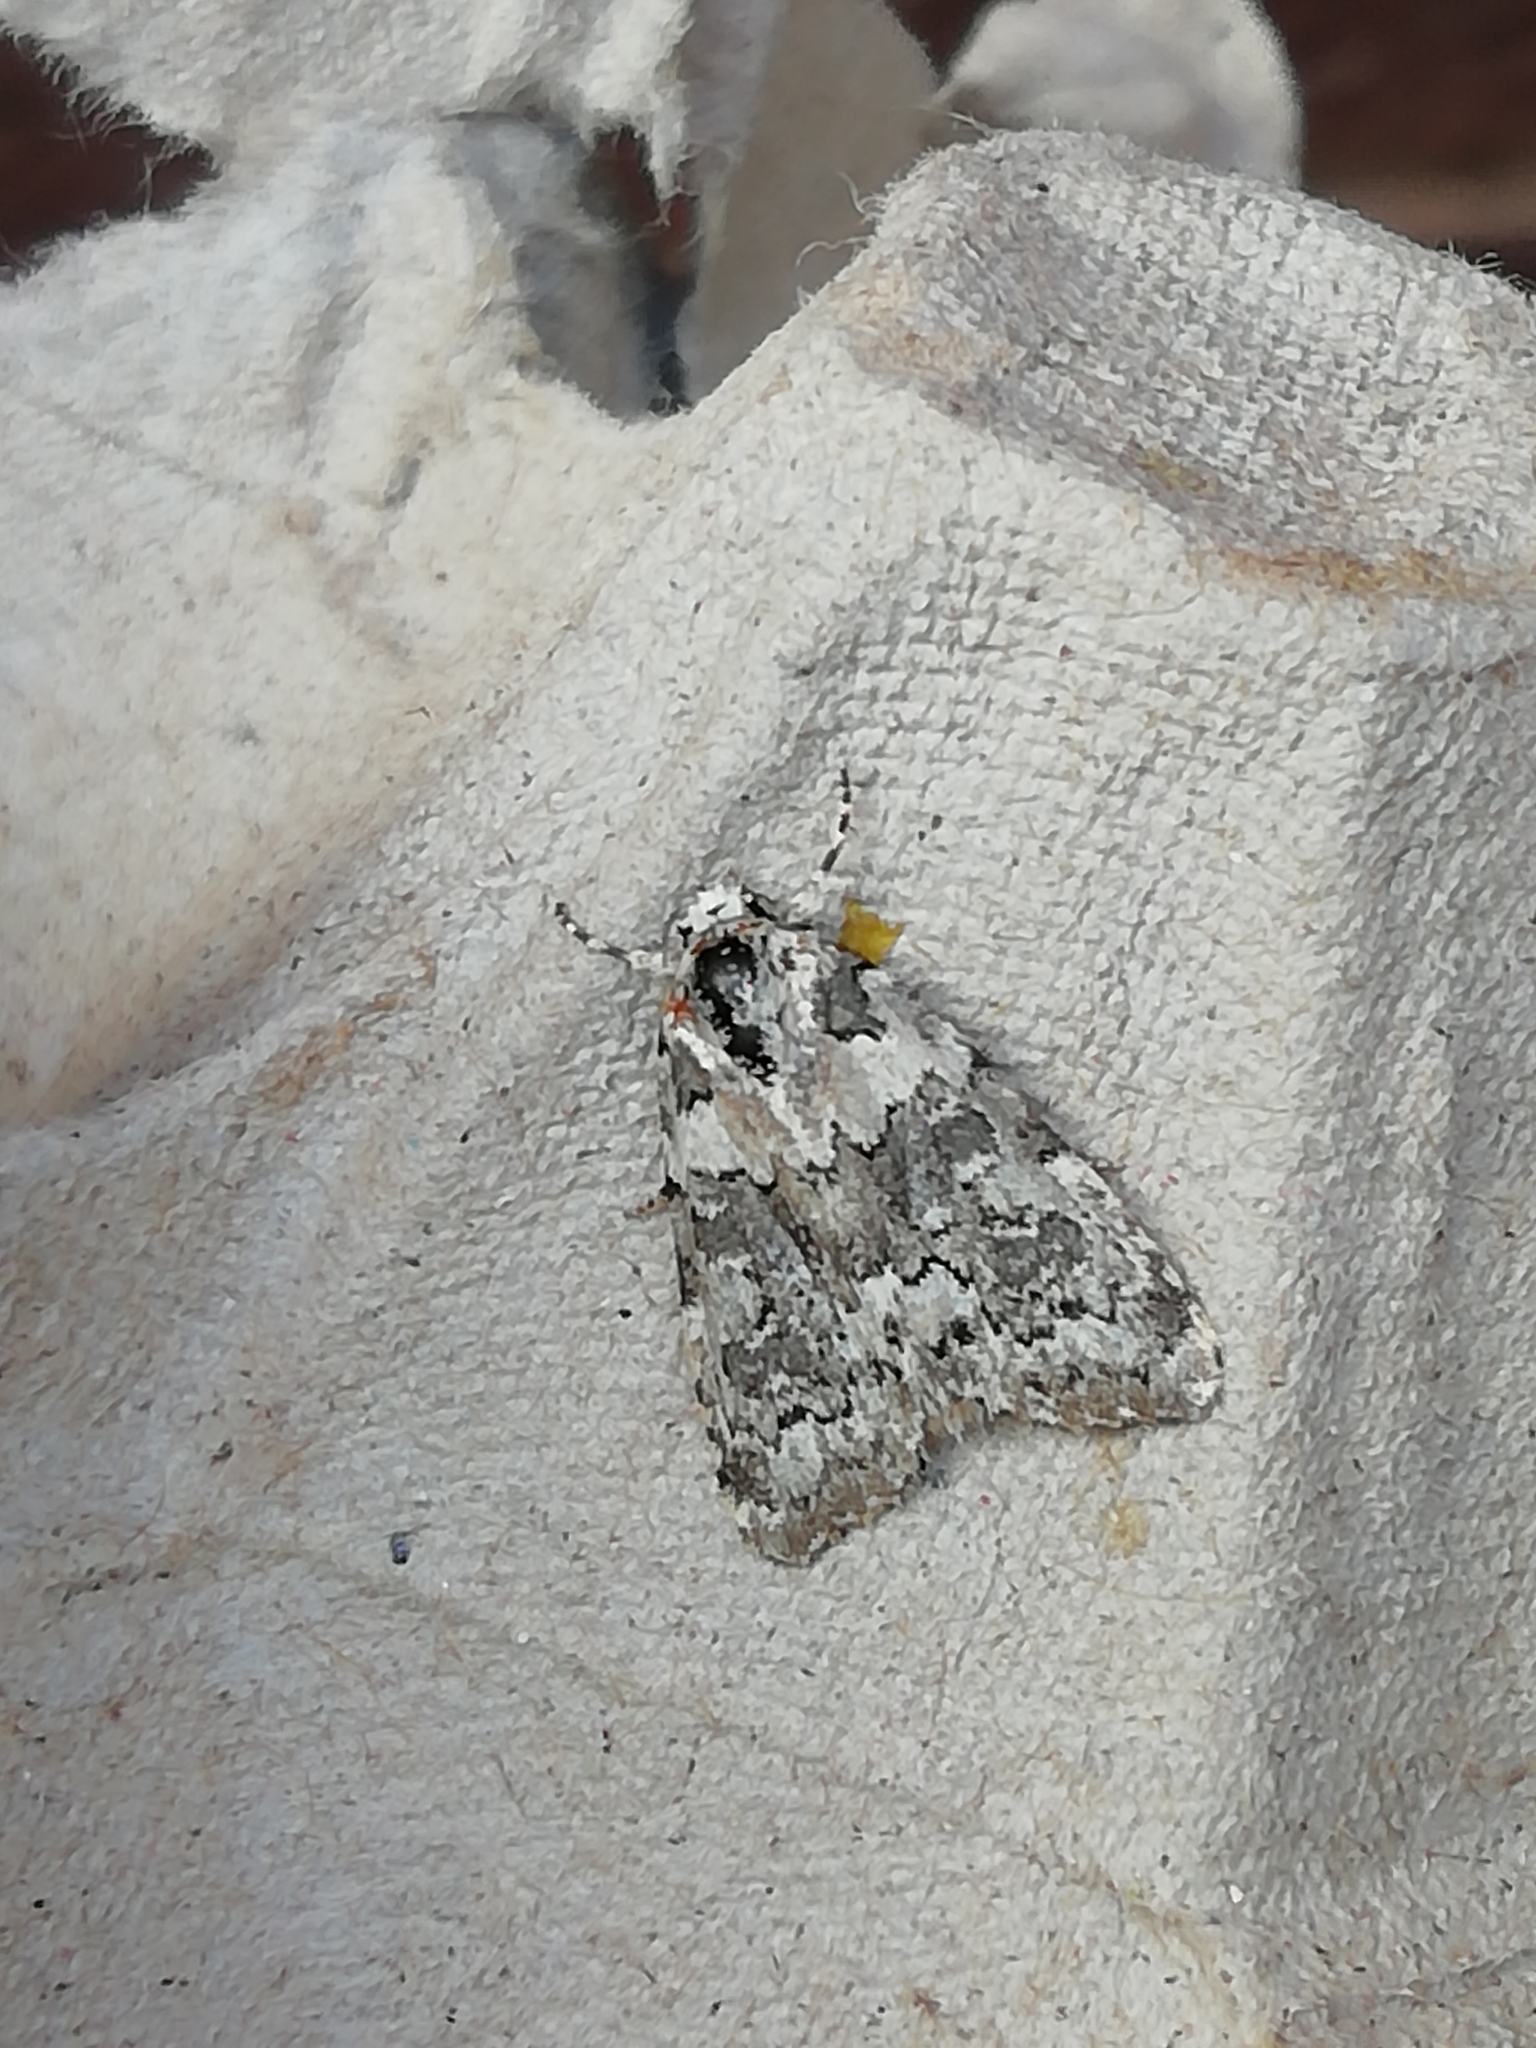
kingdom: Animalia
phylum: Arthropoda
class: Insecta
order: Lepidoptera
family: Noctuidae
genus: Bryophila
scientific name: Bryophila domestica
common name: Marbled beauty
